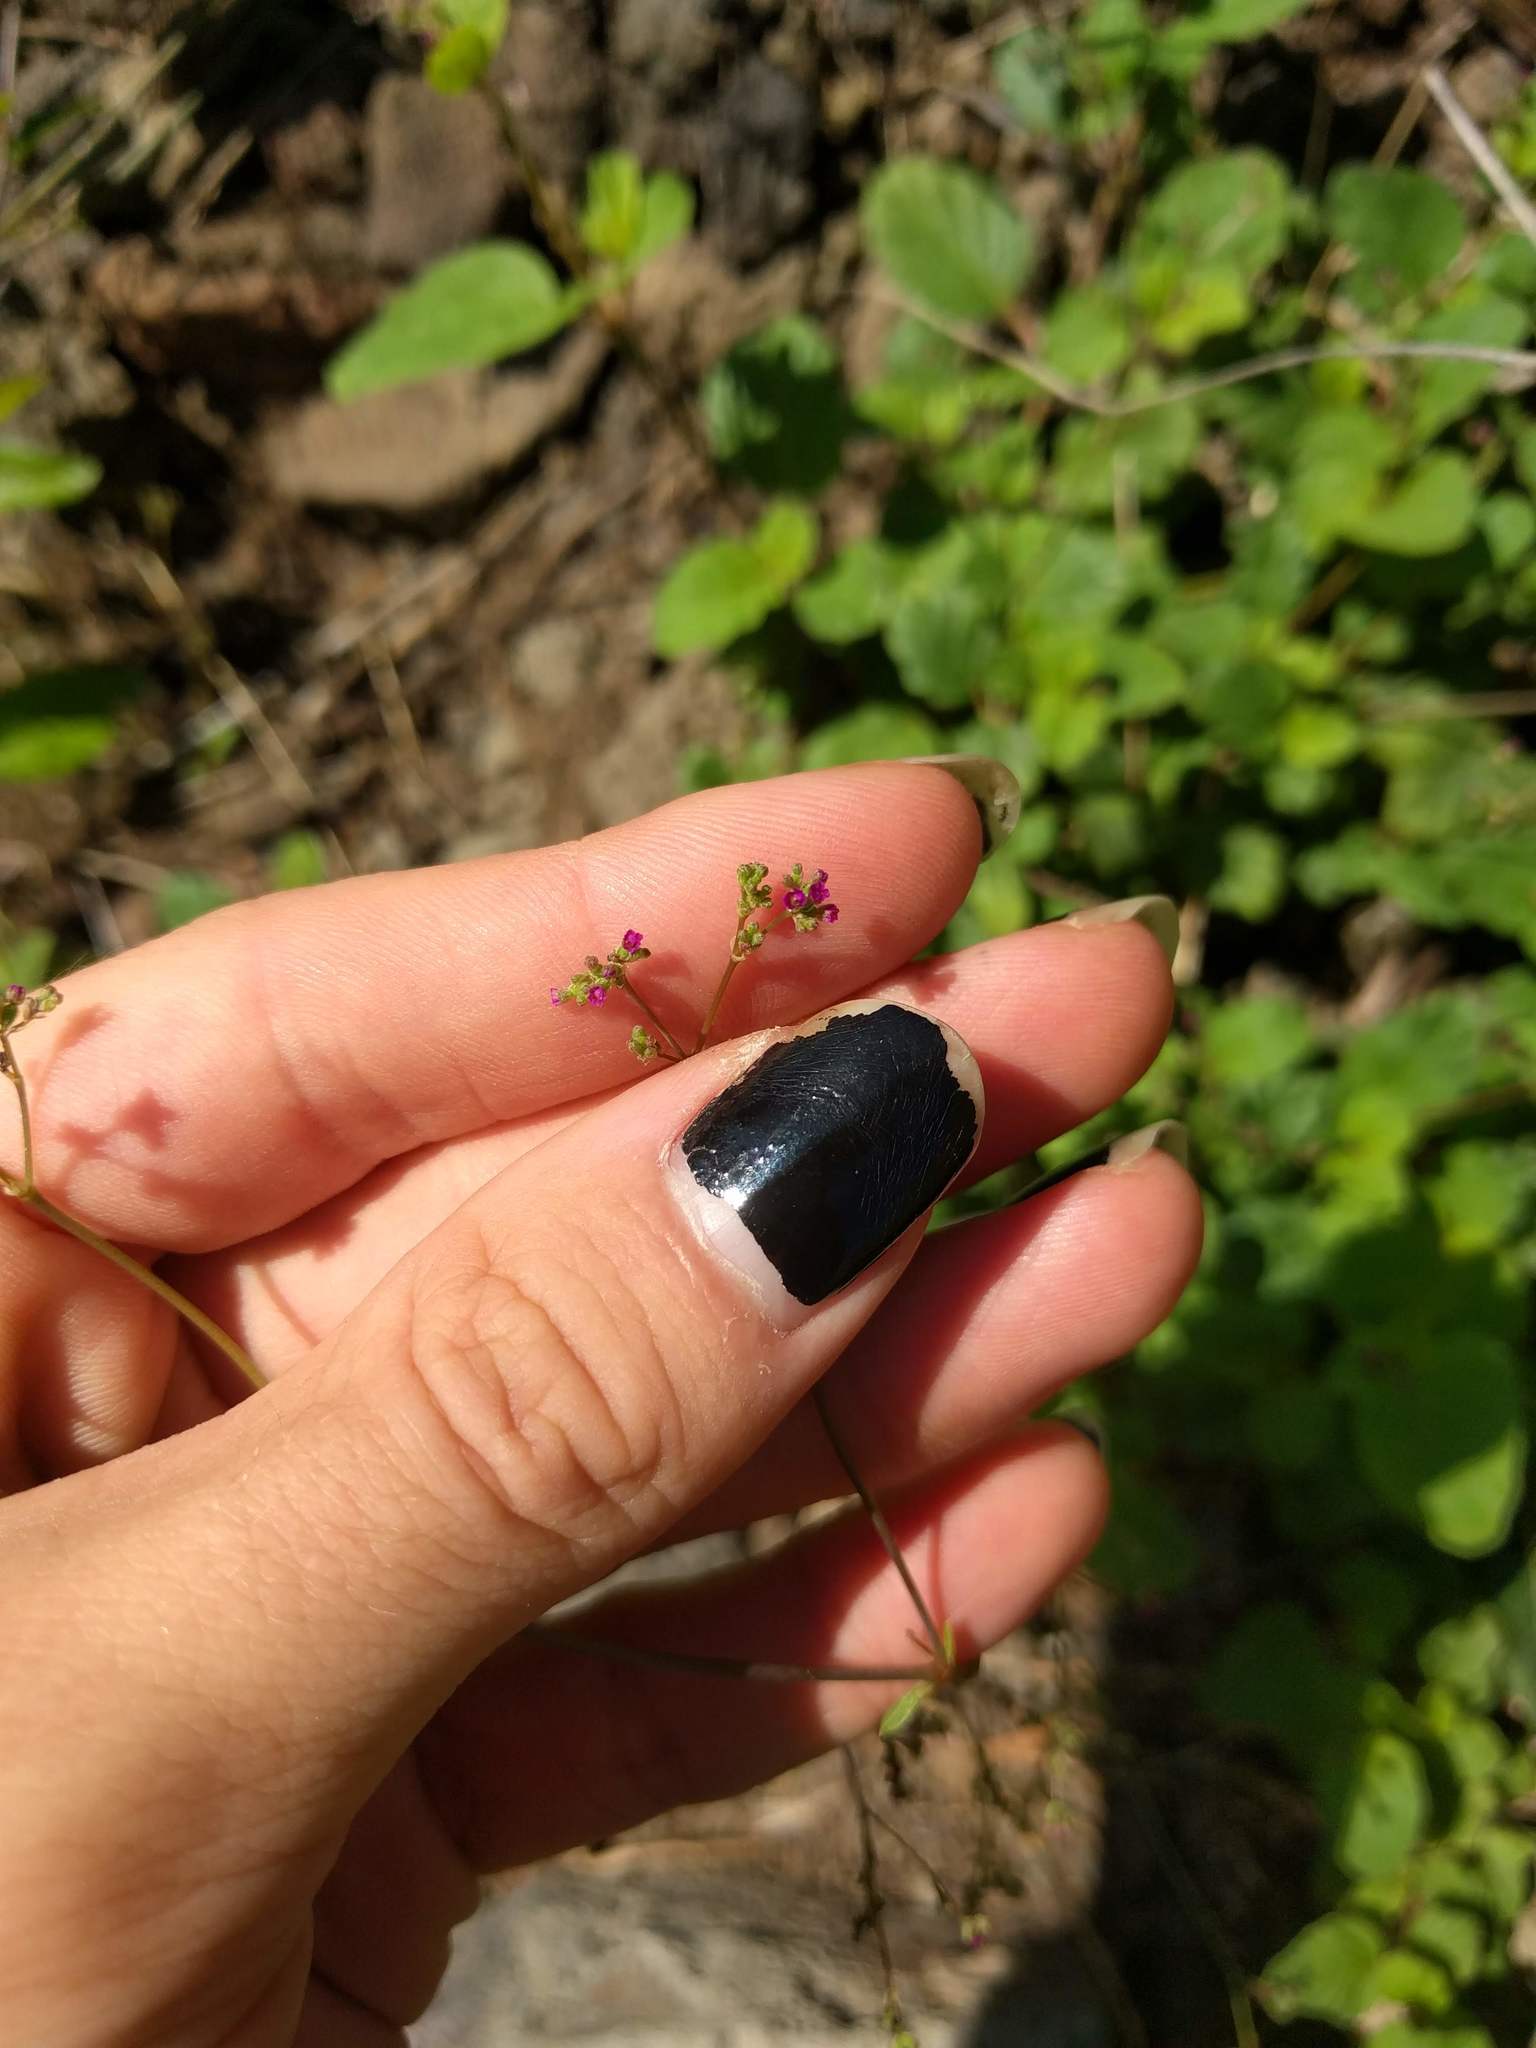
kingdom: Plantae
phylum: Tracheophyta
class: Magnoliopsida
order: Caryophyllales
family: Nyctaginaceae
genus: Boerhavia
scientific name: Boerhavia diffusa
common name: Red spiderling
